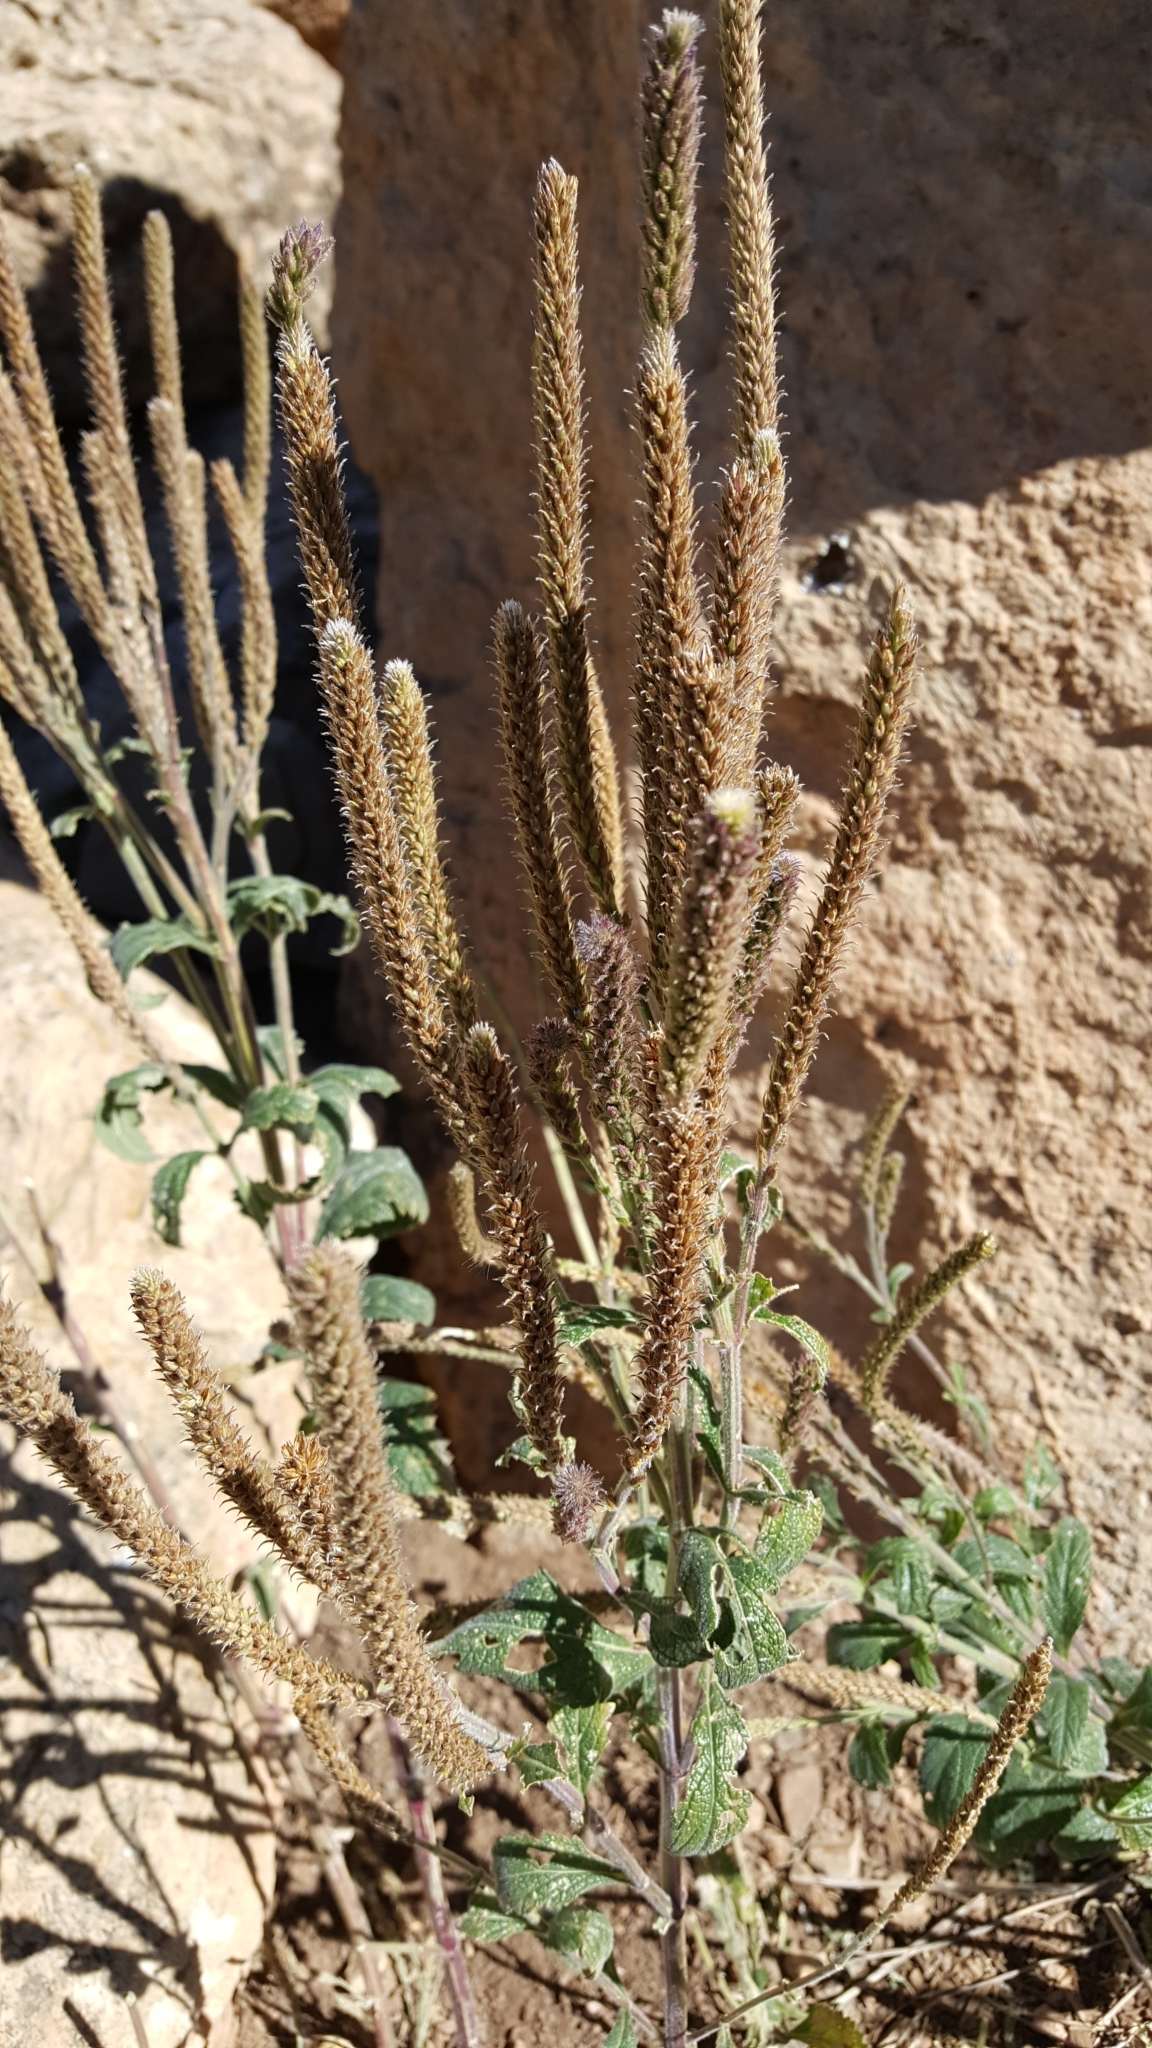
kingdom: Plantae
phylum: Tracheophyta
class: Magnoliopsida
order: Lamiales
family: Verbenaceae
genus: Verbena
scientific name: Verbena macdougalii
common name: New mexico vervain
